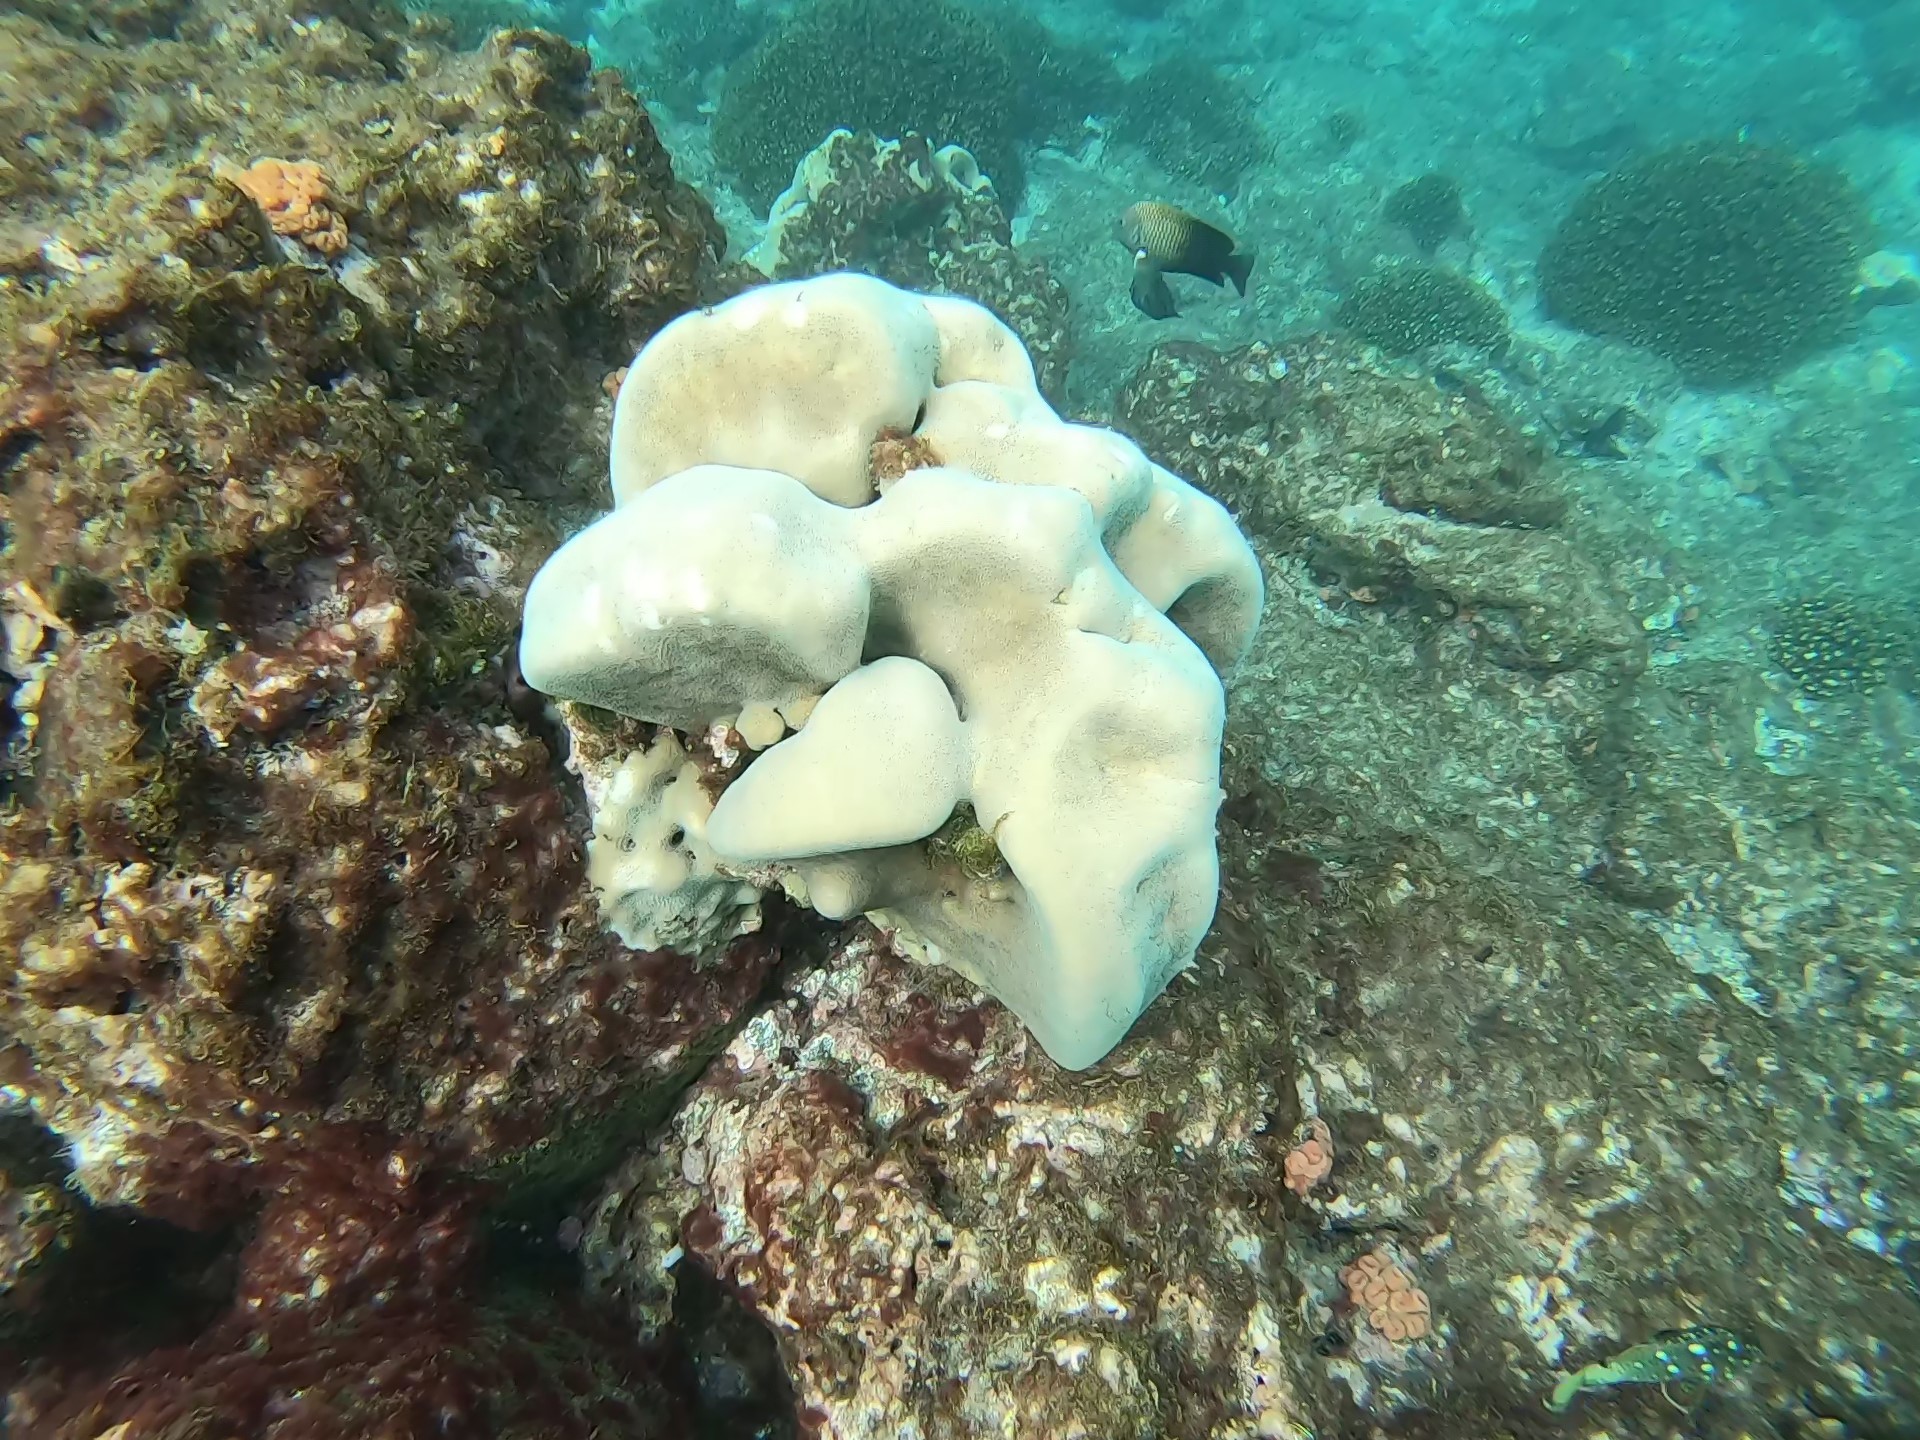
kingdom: Animalia
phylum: Cnidaria
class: Anthozoa
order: Scleractinia
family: Agariciidae
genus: Pavona
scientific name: Pavona duerdeni
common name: Leaf coral
